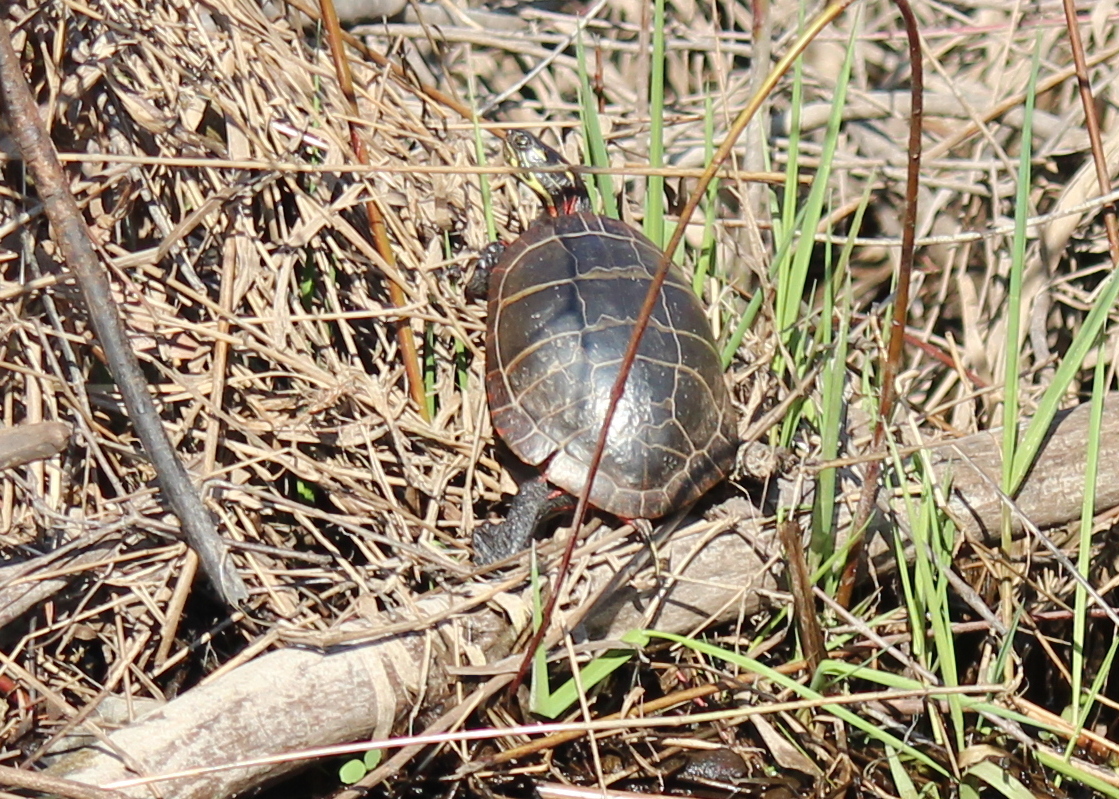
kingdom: Animalia
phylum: Chordata
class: Testudines
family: Emydidae
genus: Chrysemys
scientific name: Chrysemys picta
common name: Painted turtle
